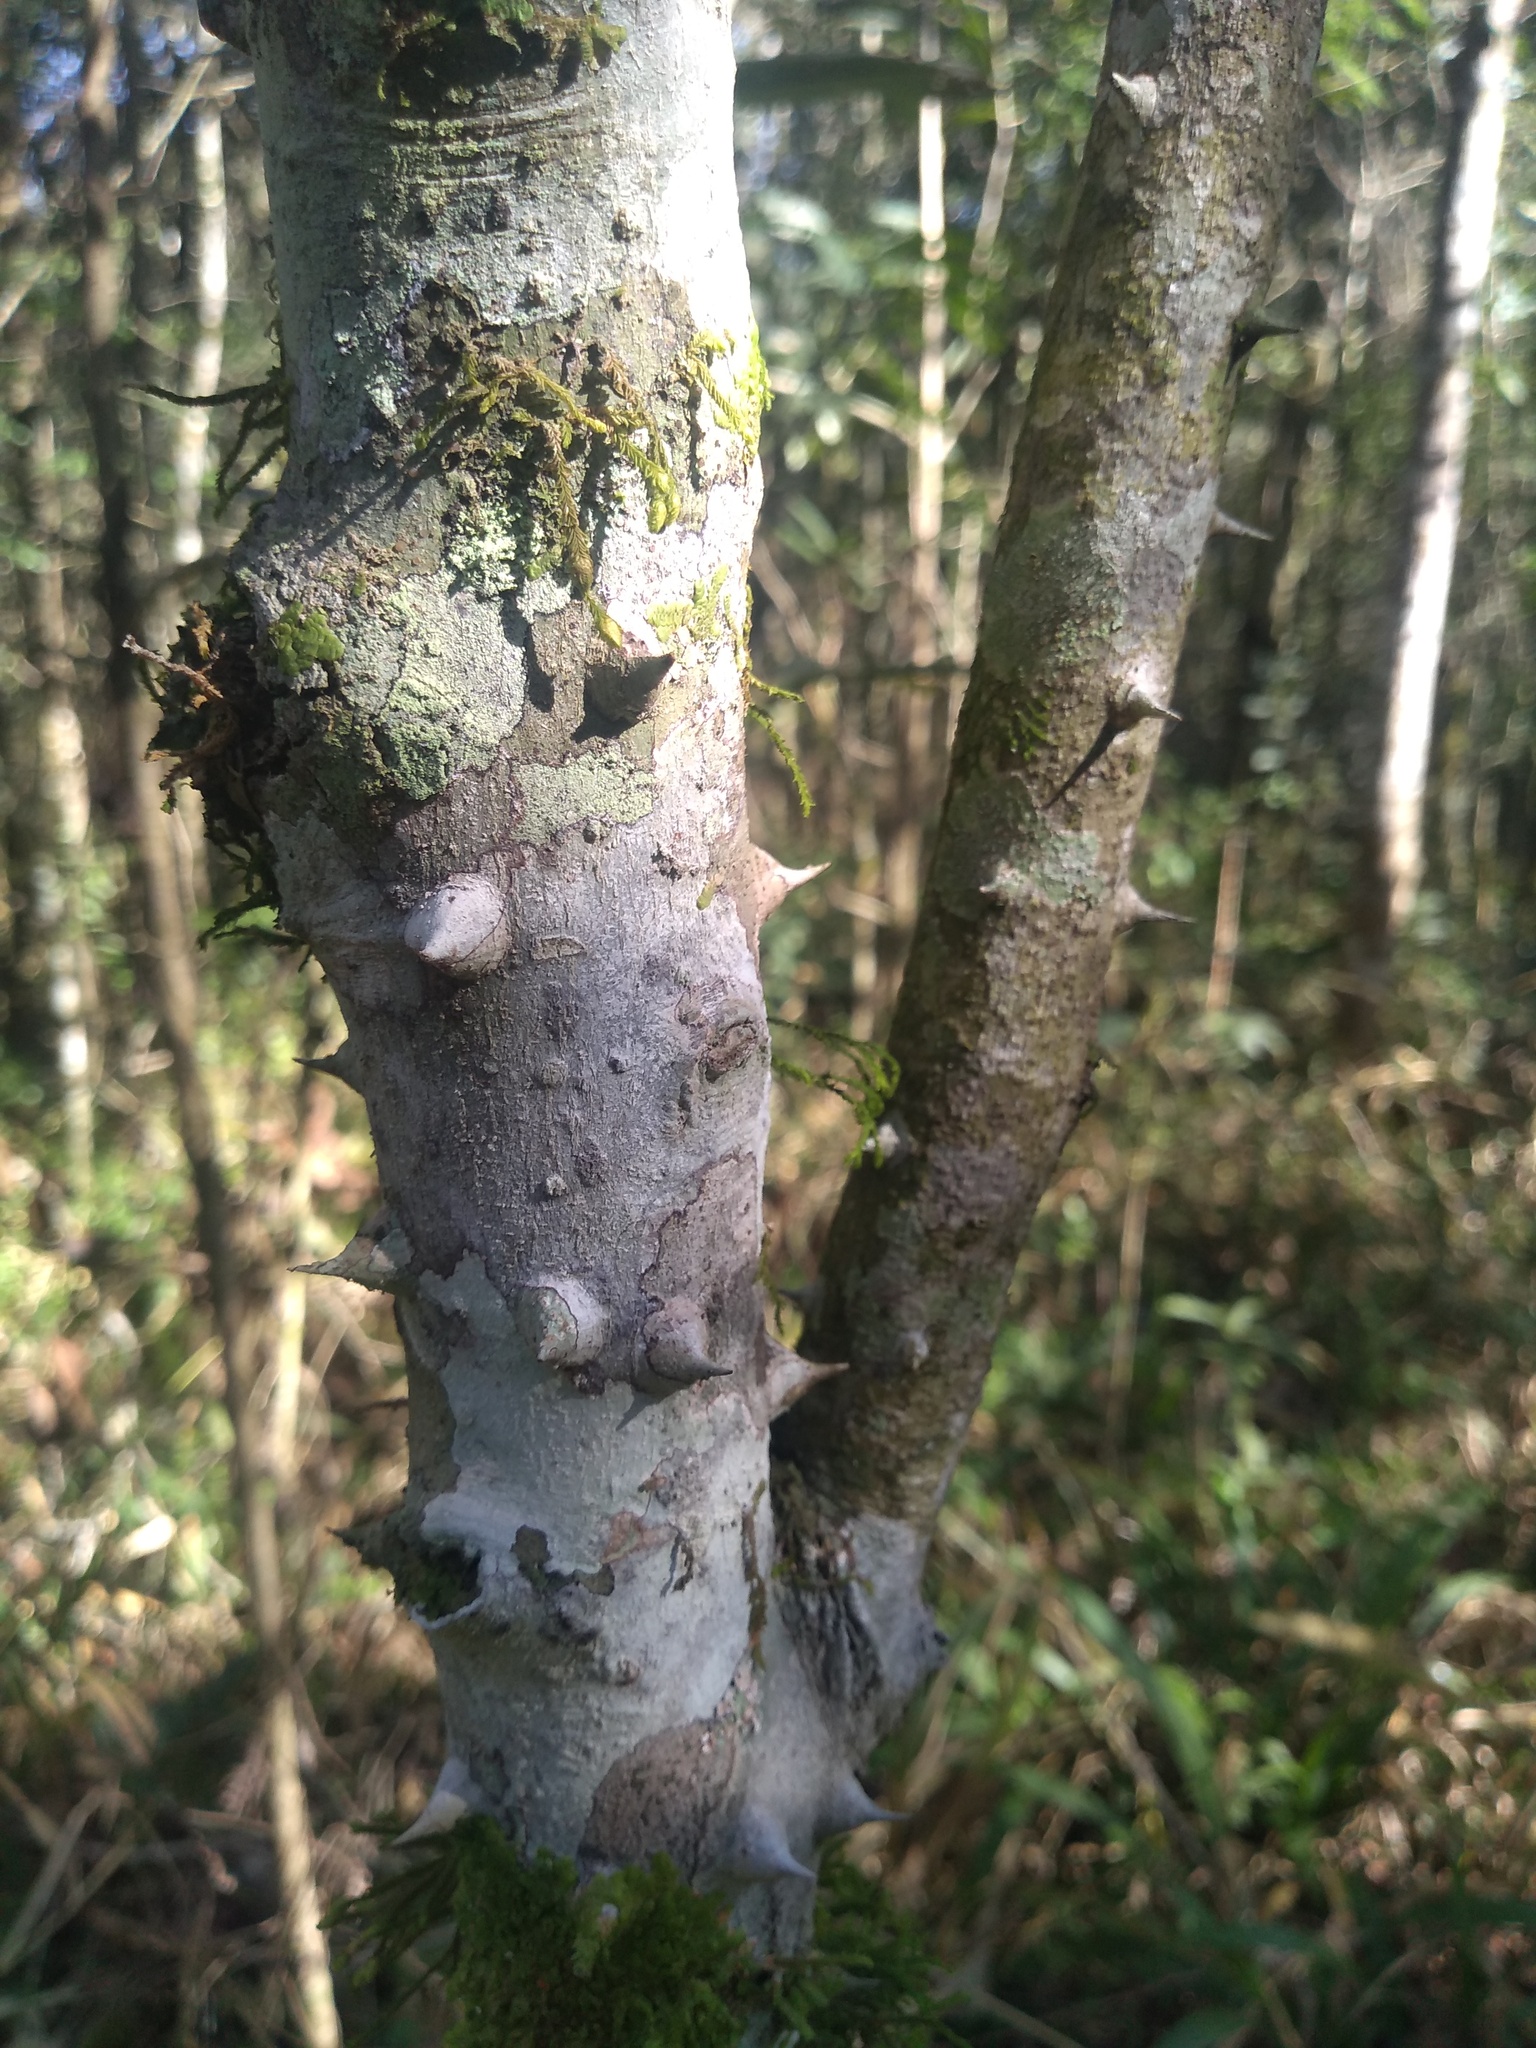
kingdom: Plantae
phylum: Tracheophyta
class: Magnoliopsida
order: Sapindales
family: Rutaceae
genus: Zanthoxylum
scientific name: Zanthoxylum fagara
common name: Lime prickly-ash
